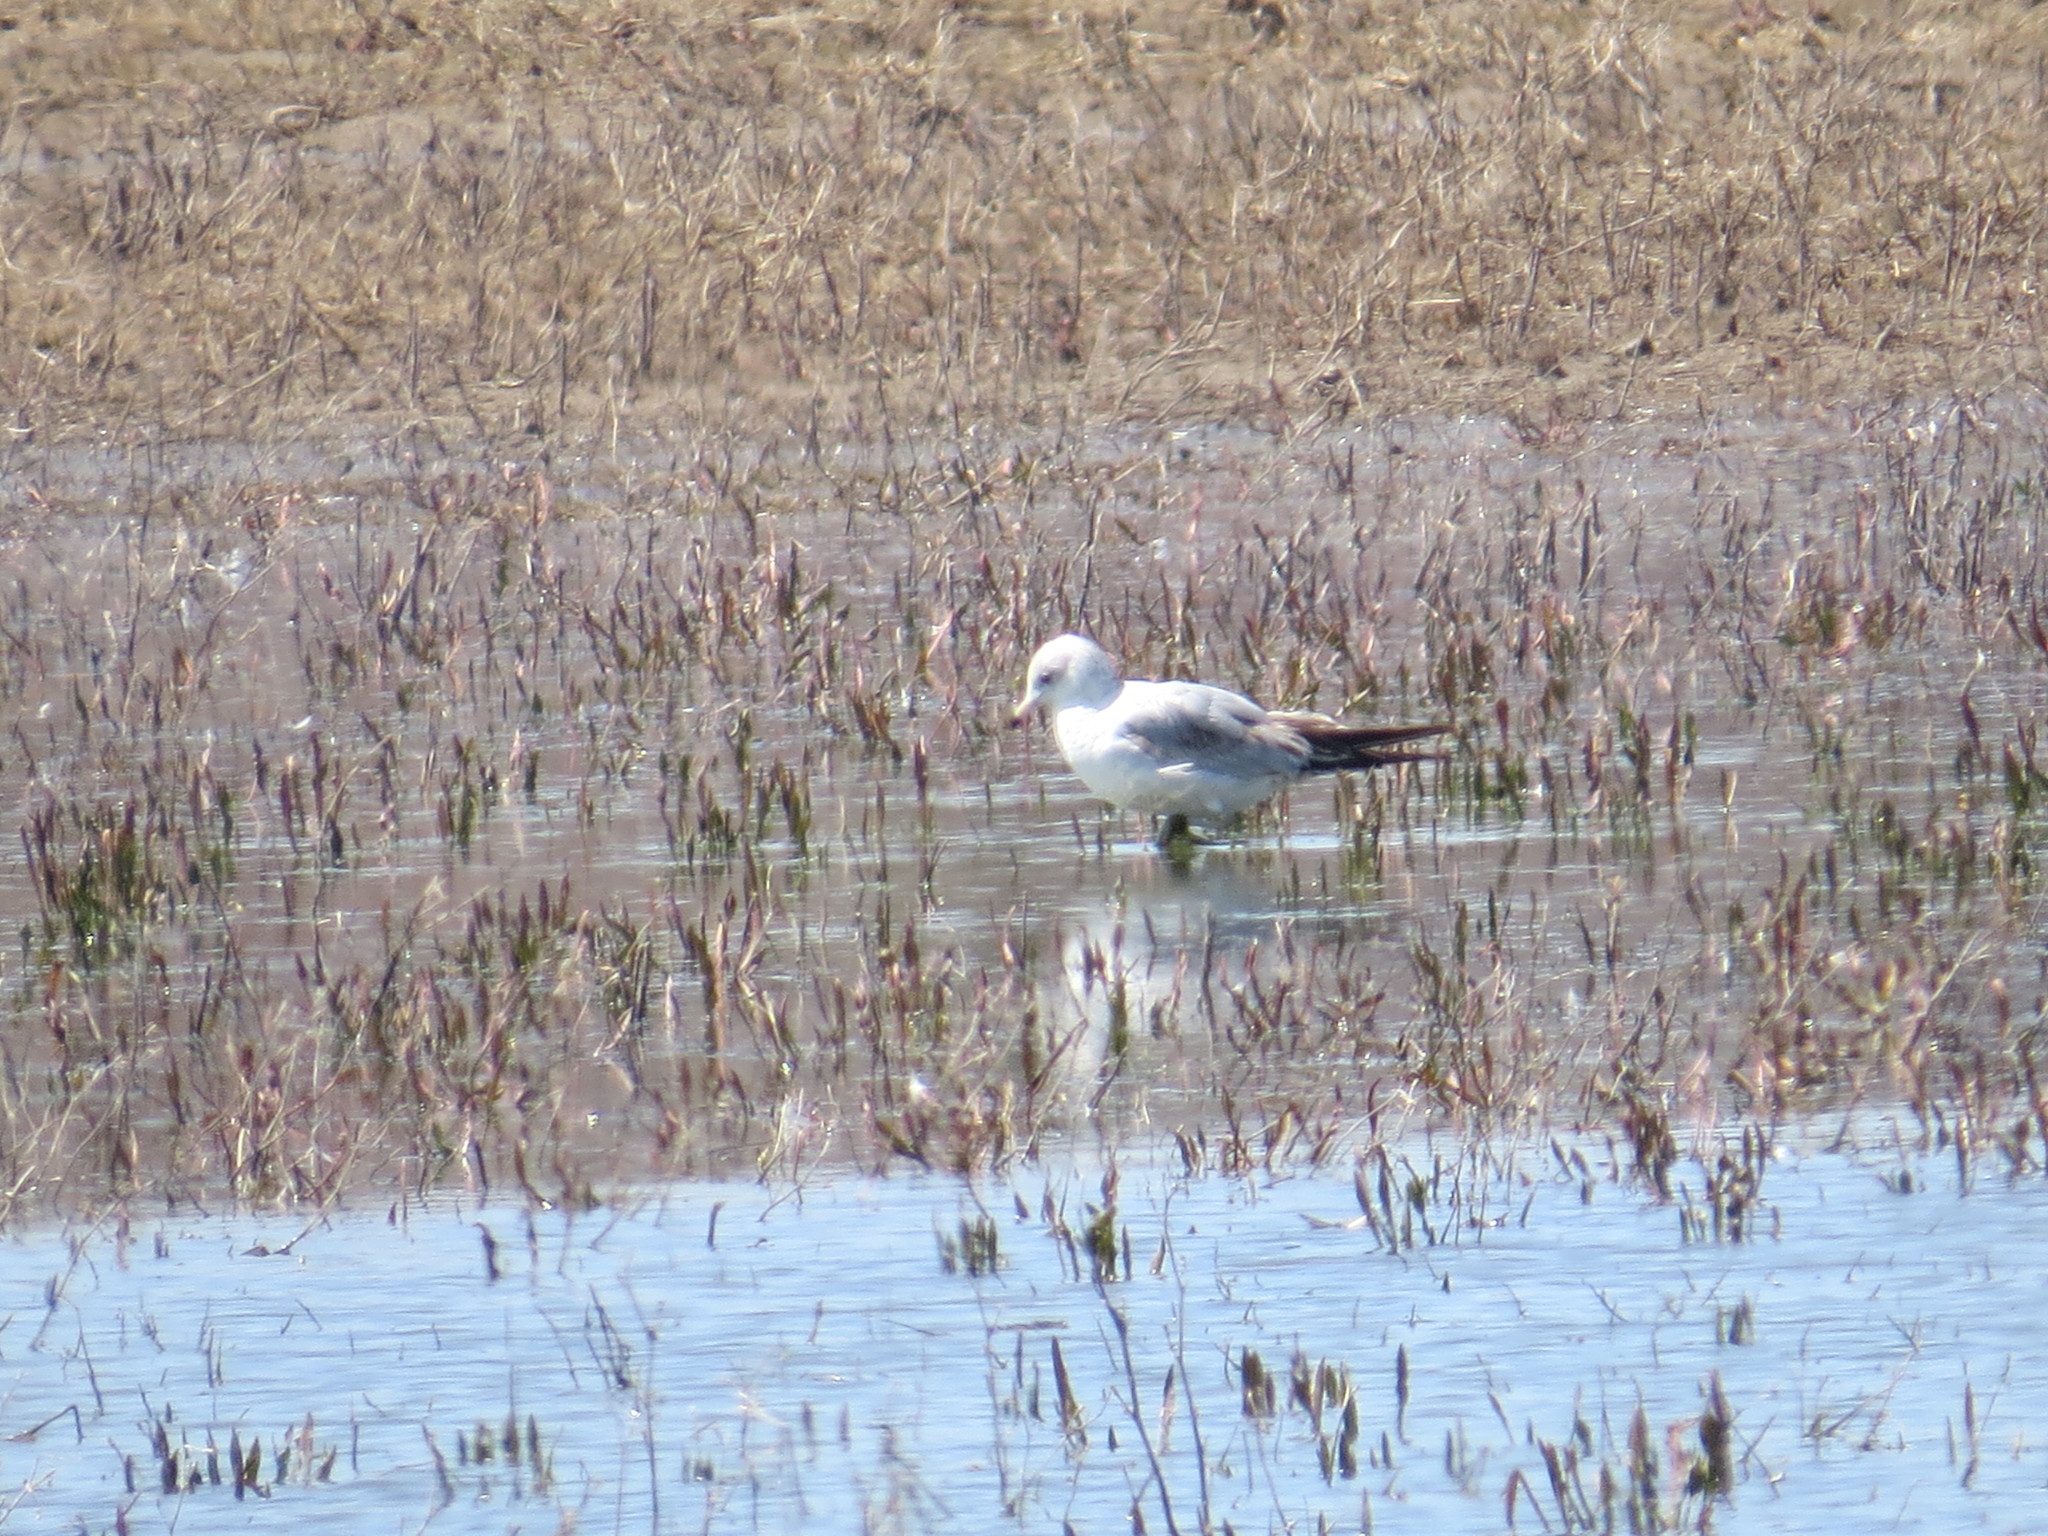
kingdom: Animalia
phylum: Chordata
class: Aves
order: Charadriiformes
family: Laridae
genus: Larus
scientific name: Larus delawarensis
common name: Ring-billed gull
